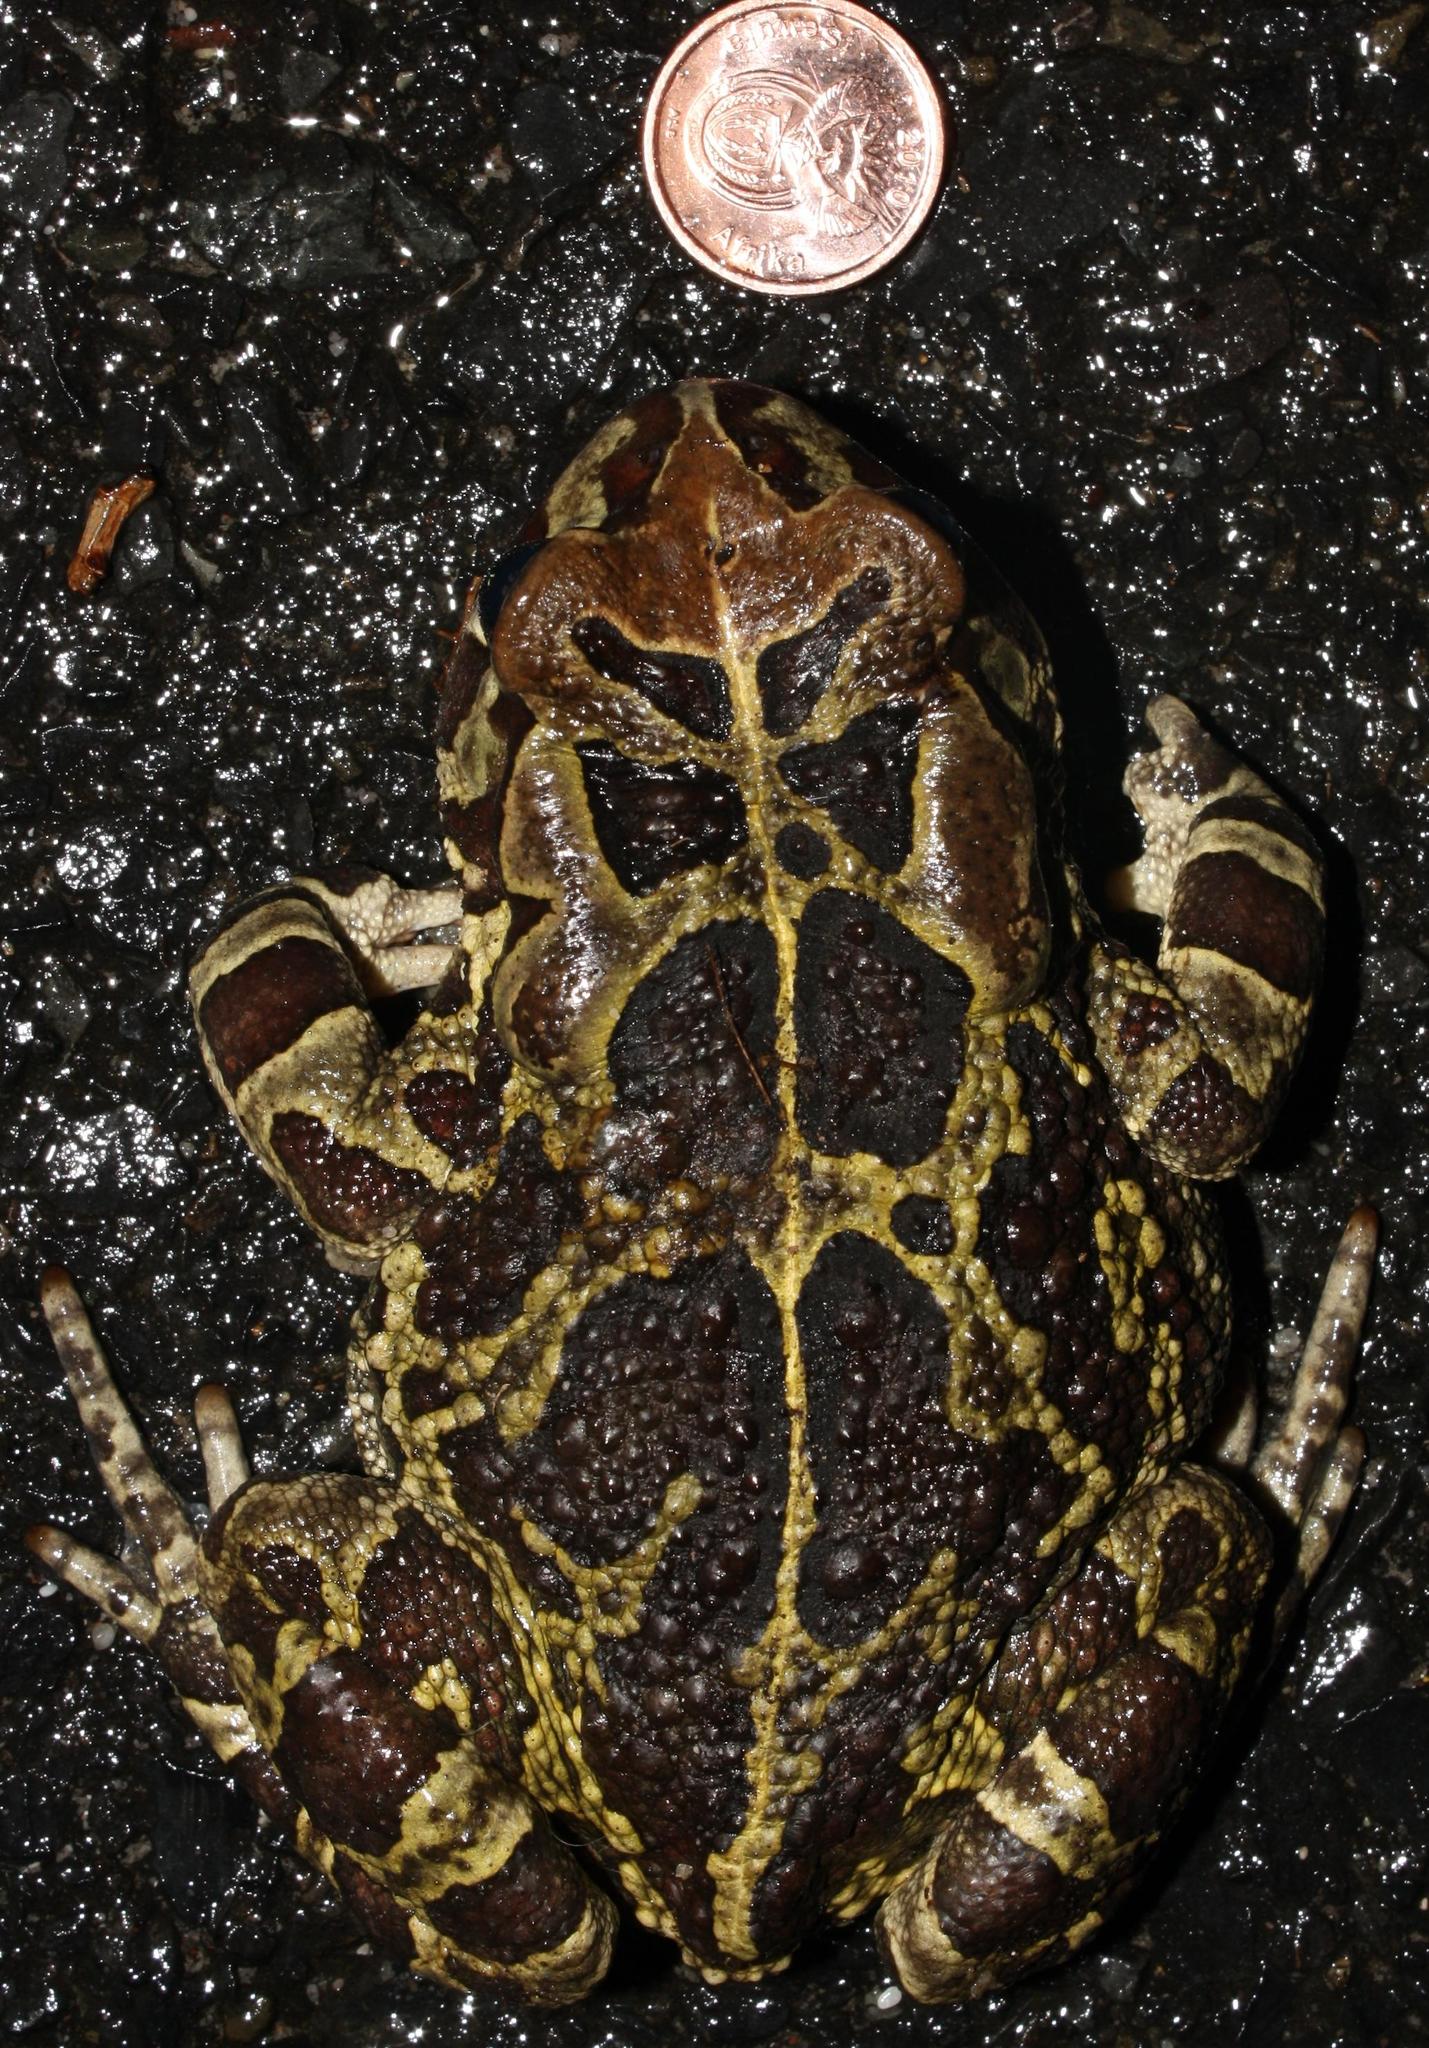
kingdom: Animalia
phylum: Chordata
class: Amphibia
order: Anura
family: Bufonidae
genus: Sclerophrys
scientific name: Sclerophrys pantherina
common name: Panther toad
